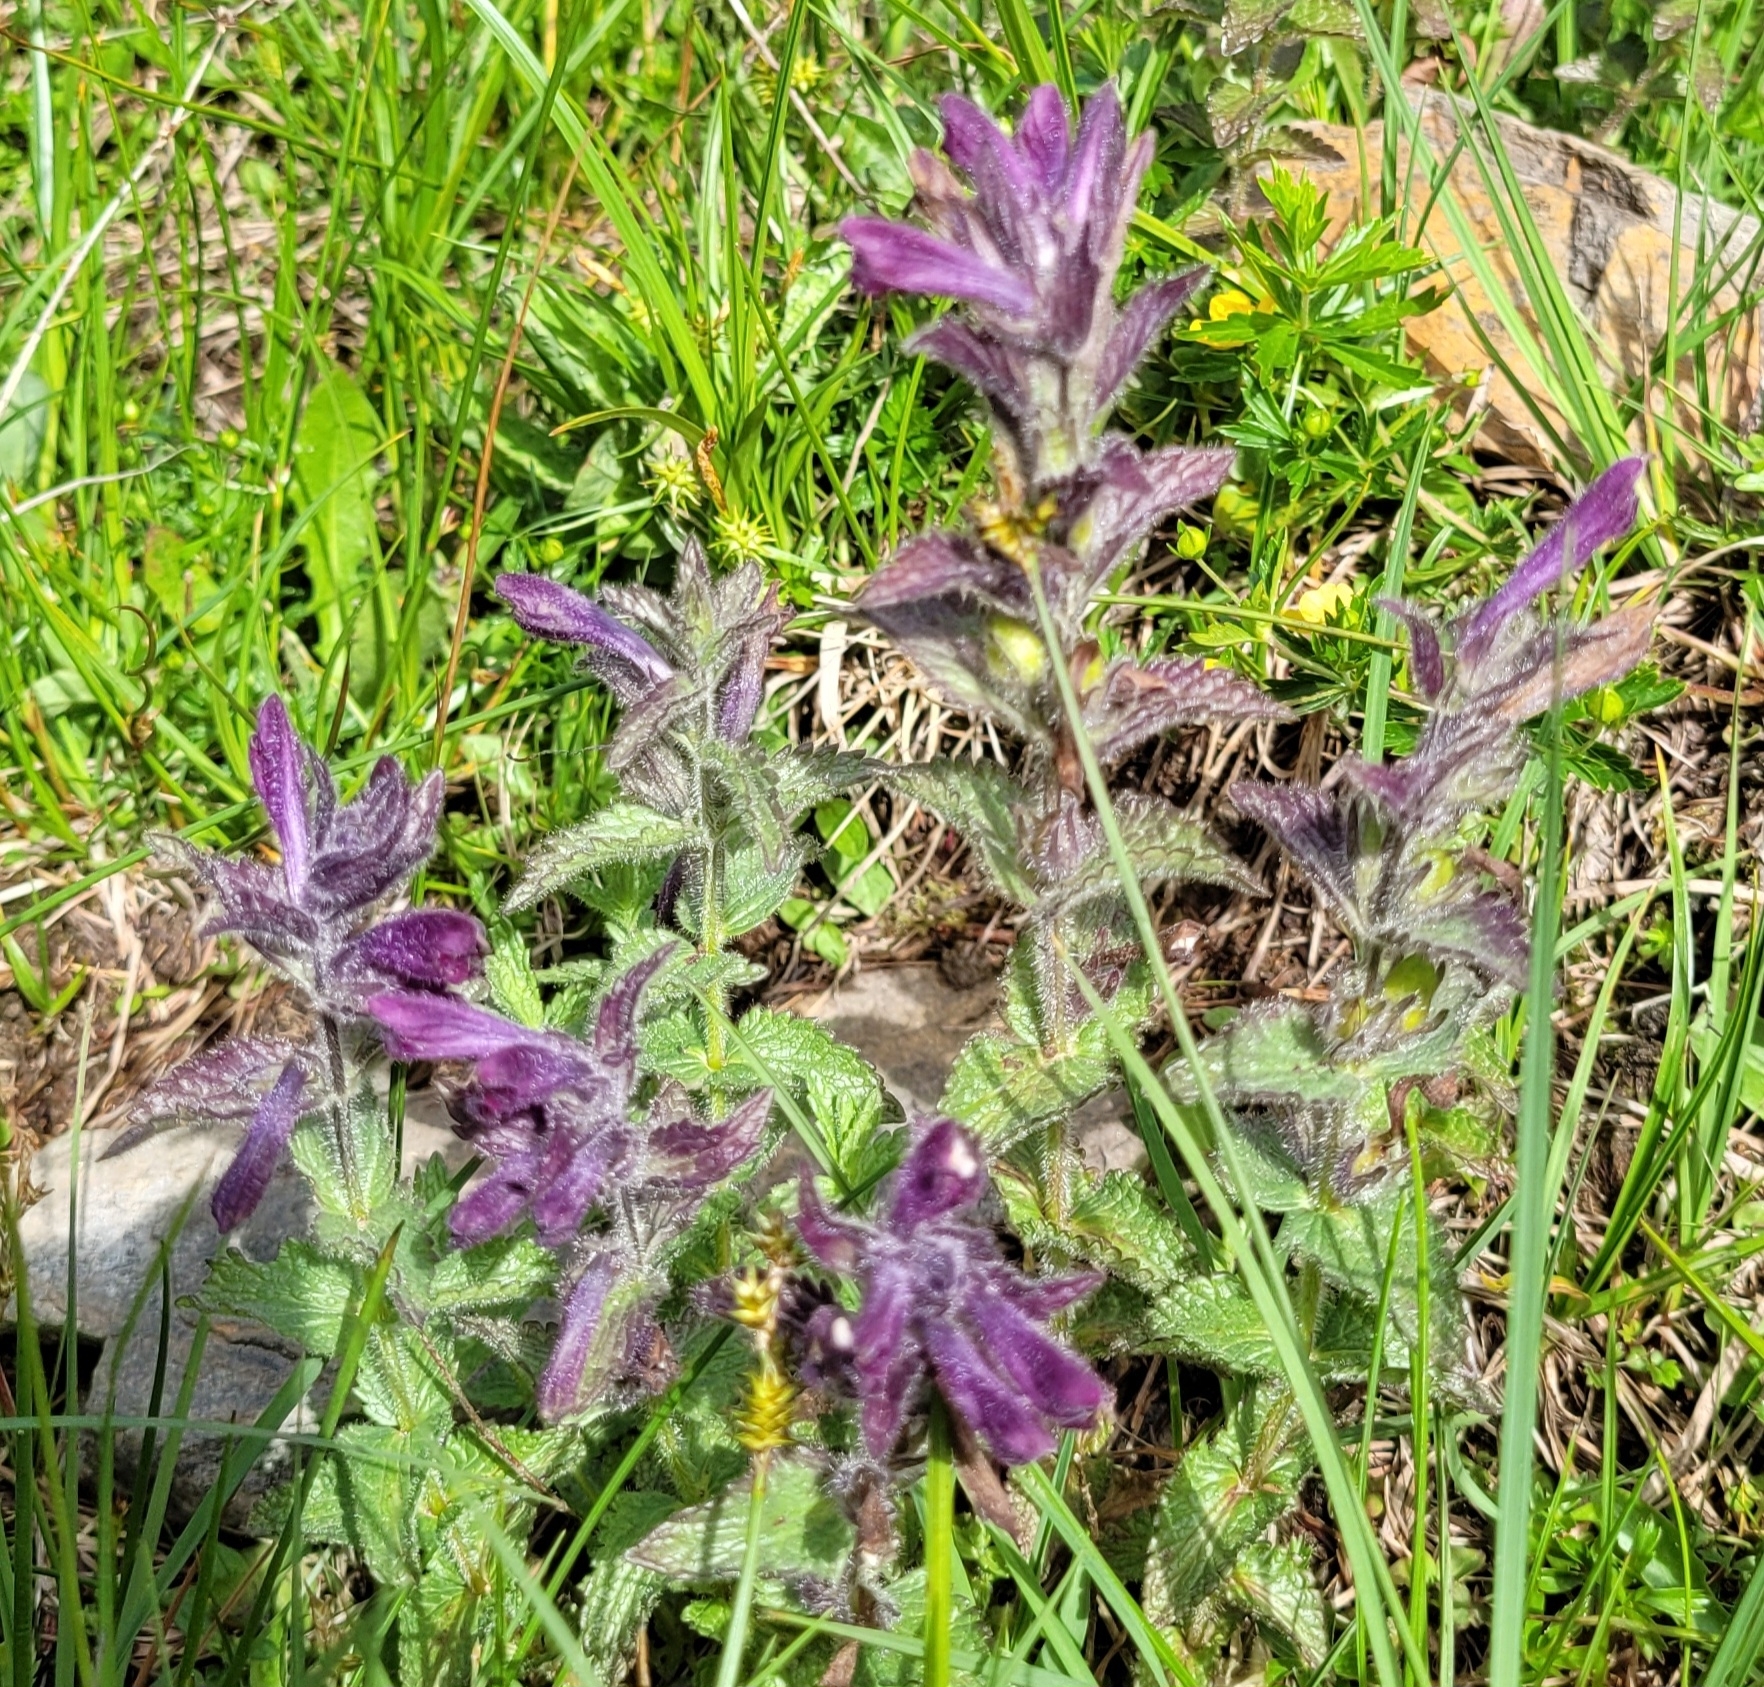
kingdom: Plantae
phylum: Tracheophyta
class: Magnoliopsida
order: Lamiales
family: Orobanchaceae
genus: Bartsia
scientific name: Bartsia alpina
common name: Alpine bartsia
